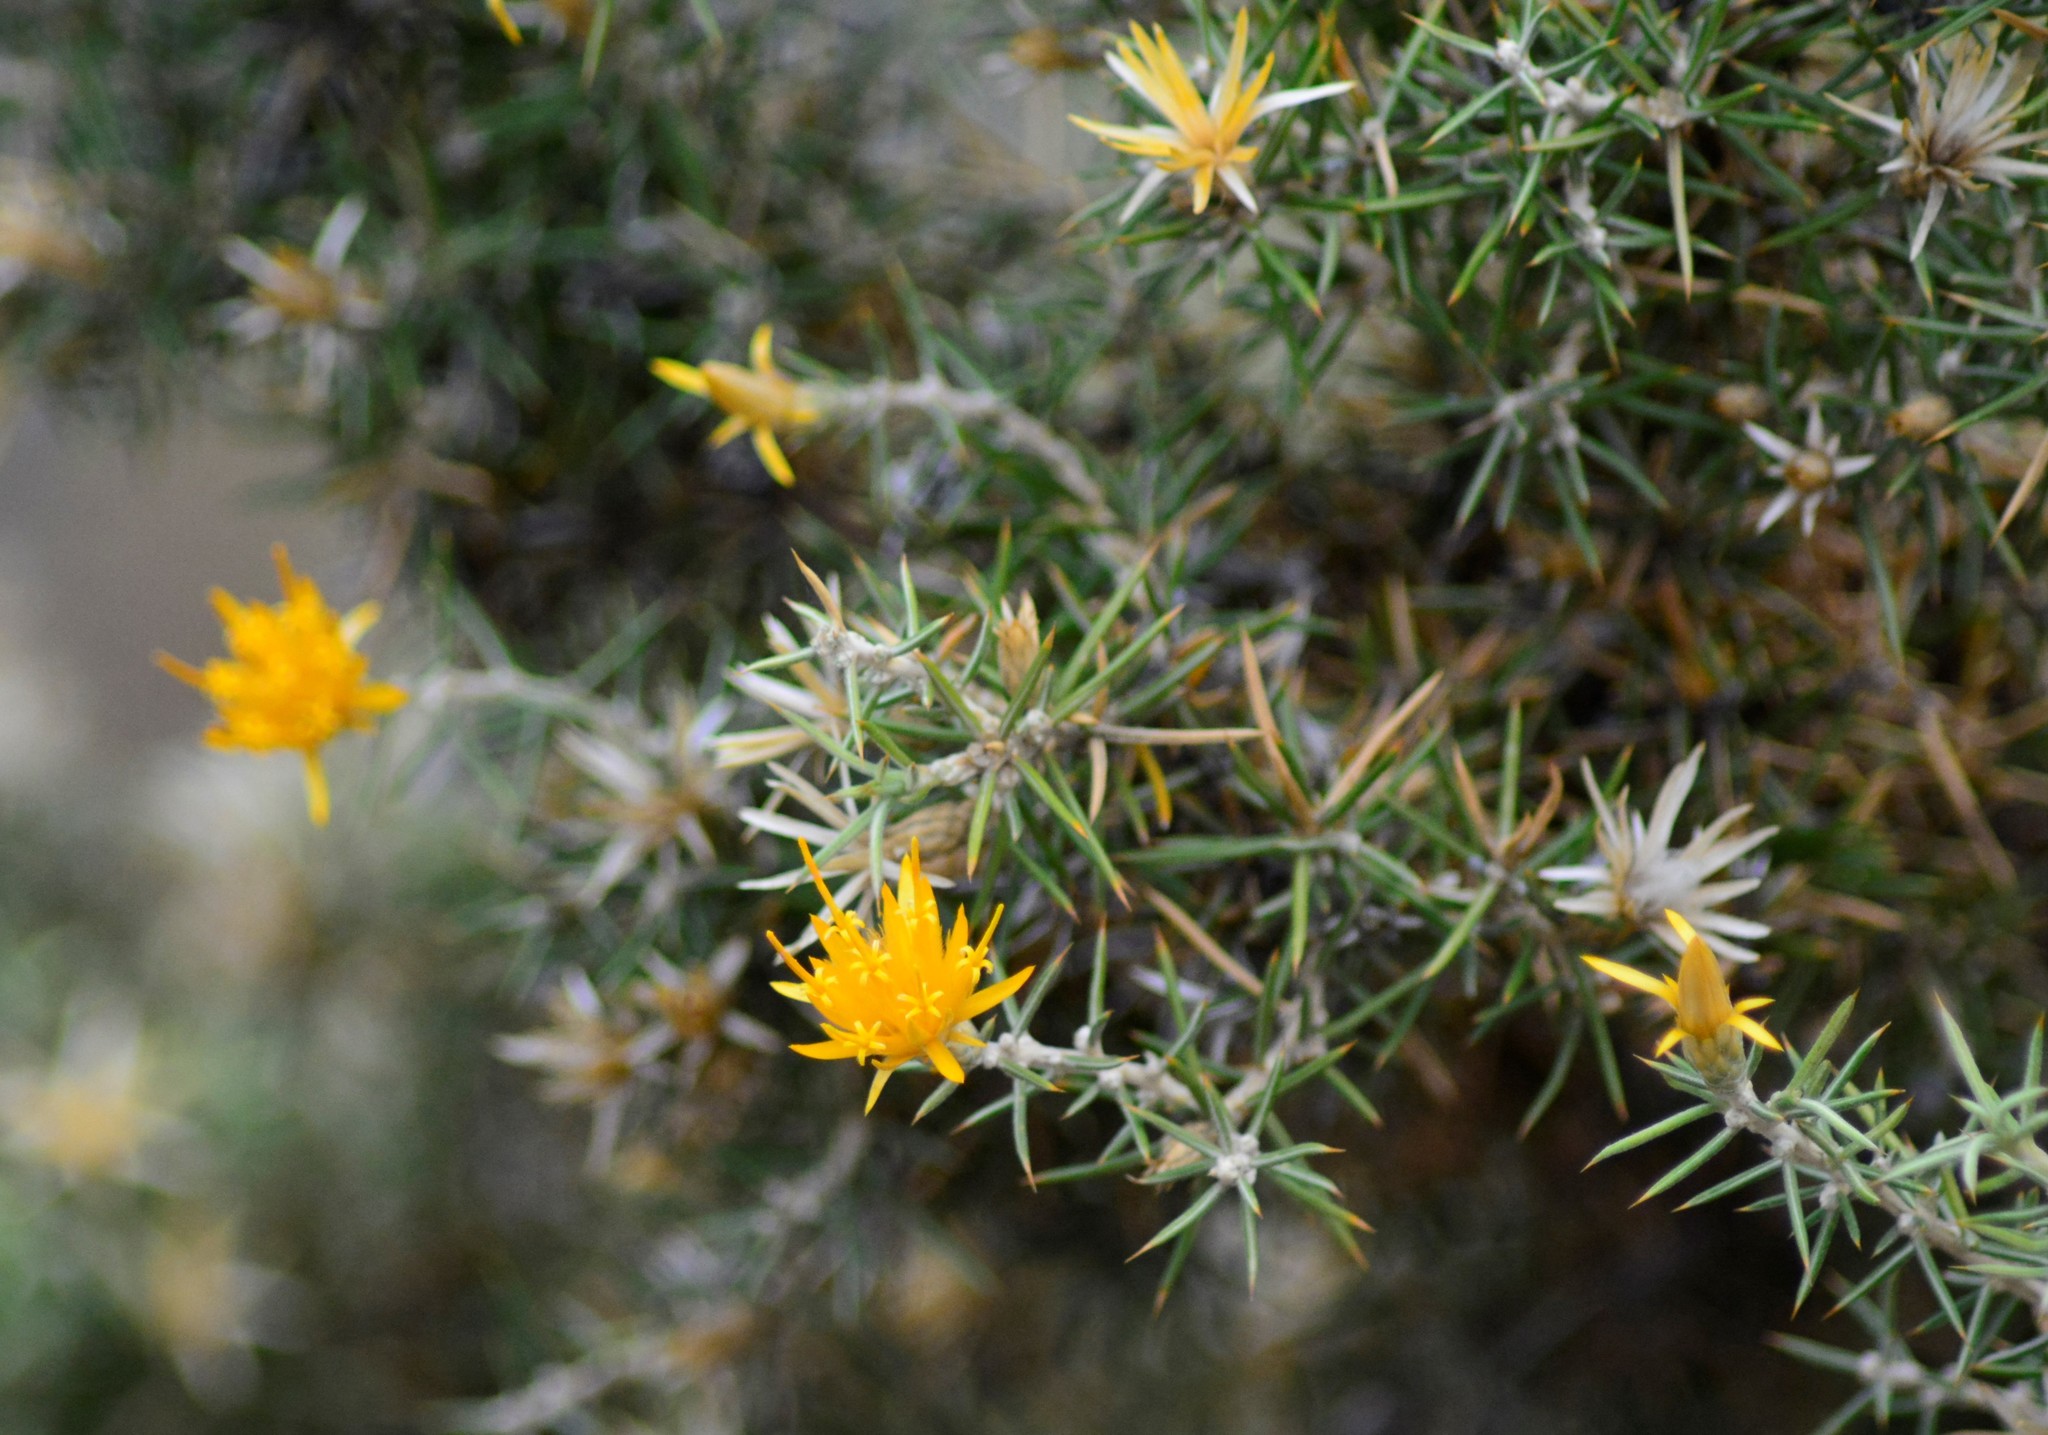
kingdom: Plantae
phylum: Tracheophyta
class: Magnoliopsida
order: Asterales
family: Asteraceae
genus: Chuquiraga
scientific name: Chuquiraga erinacea
